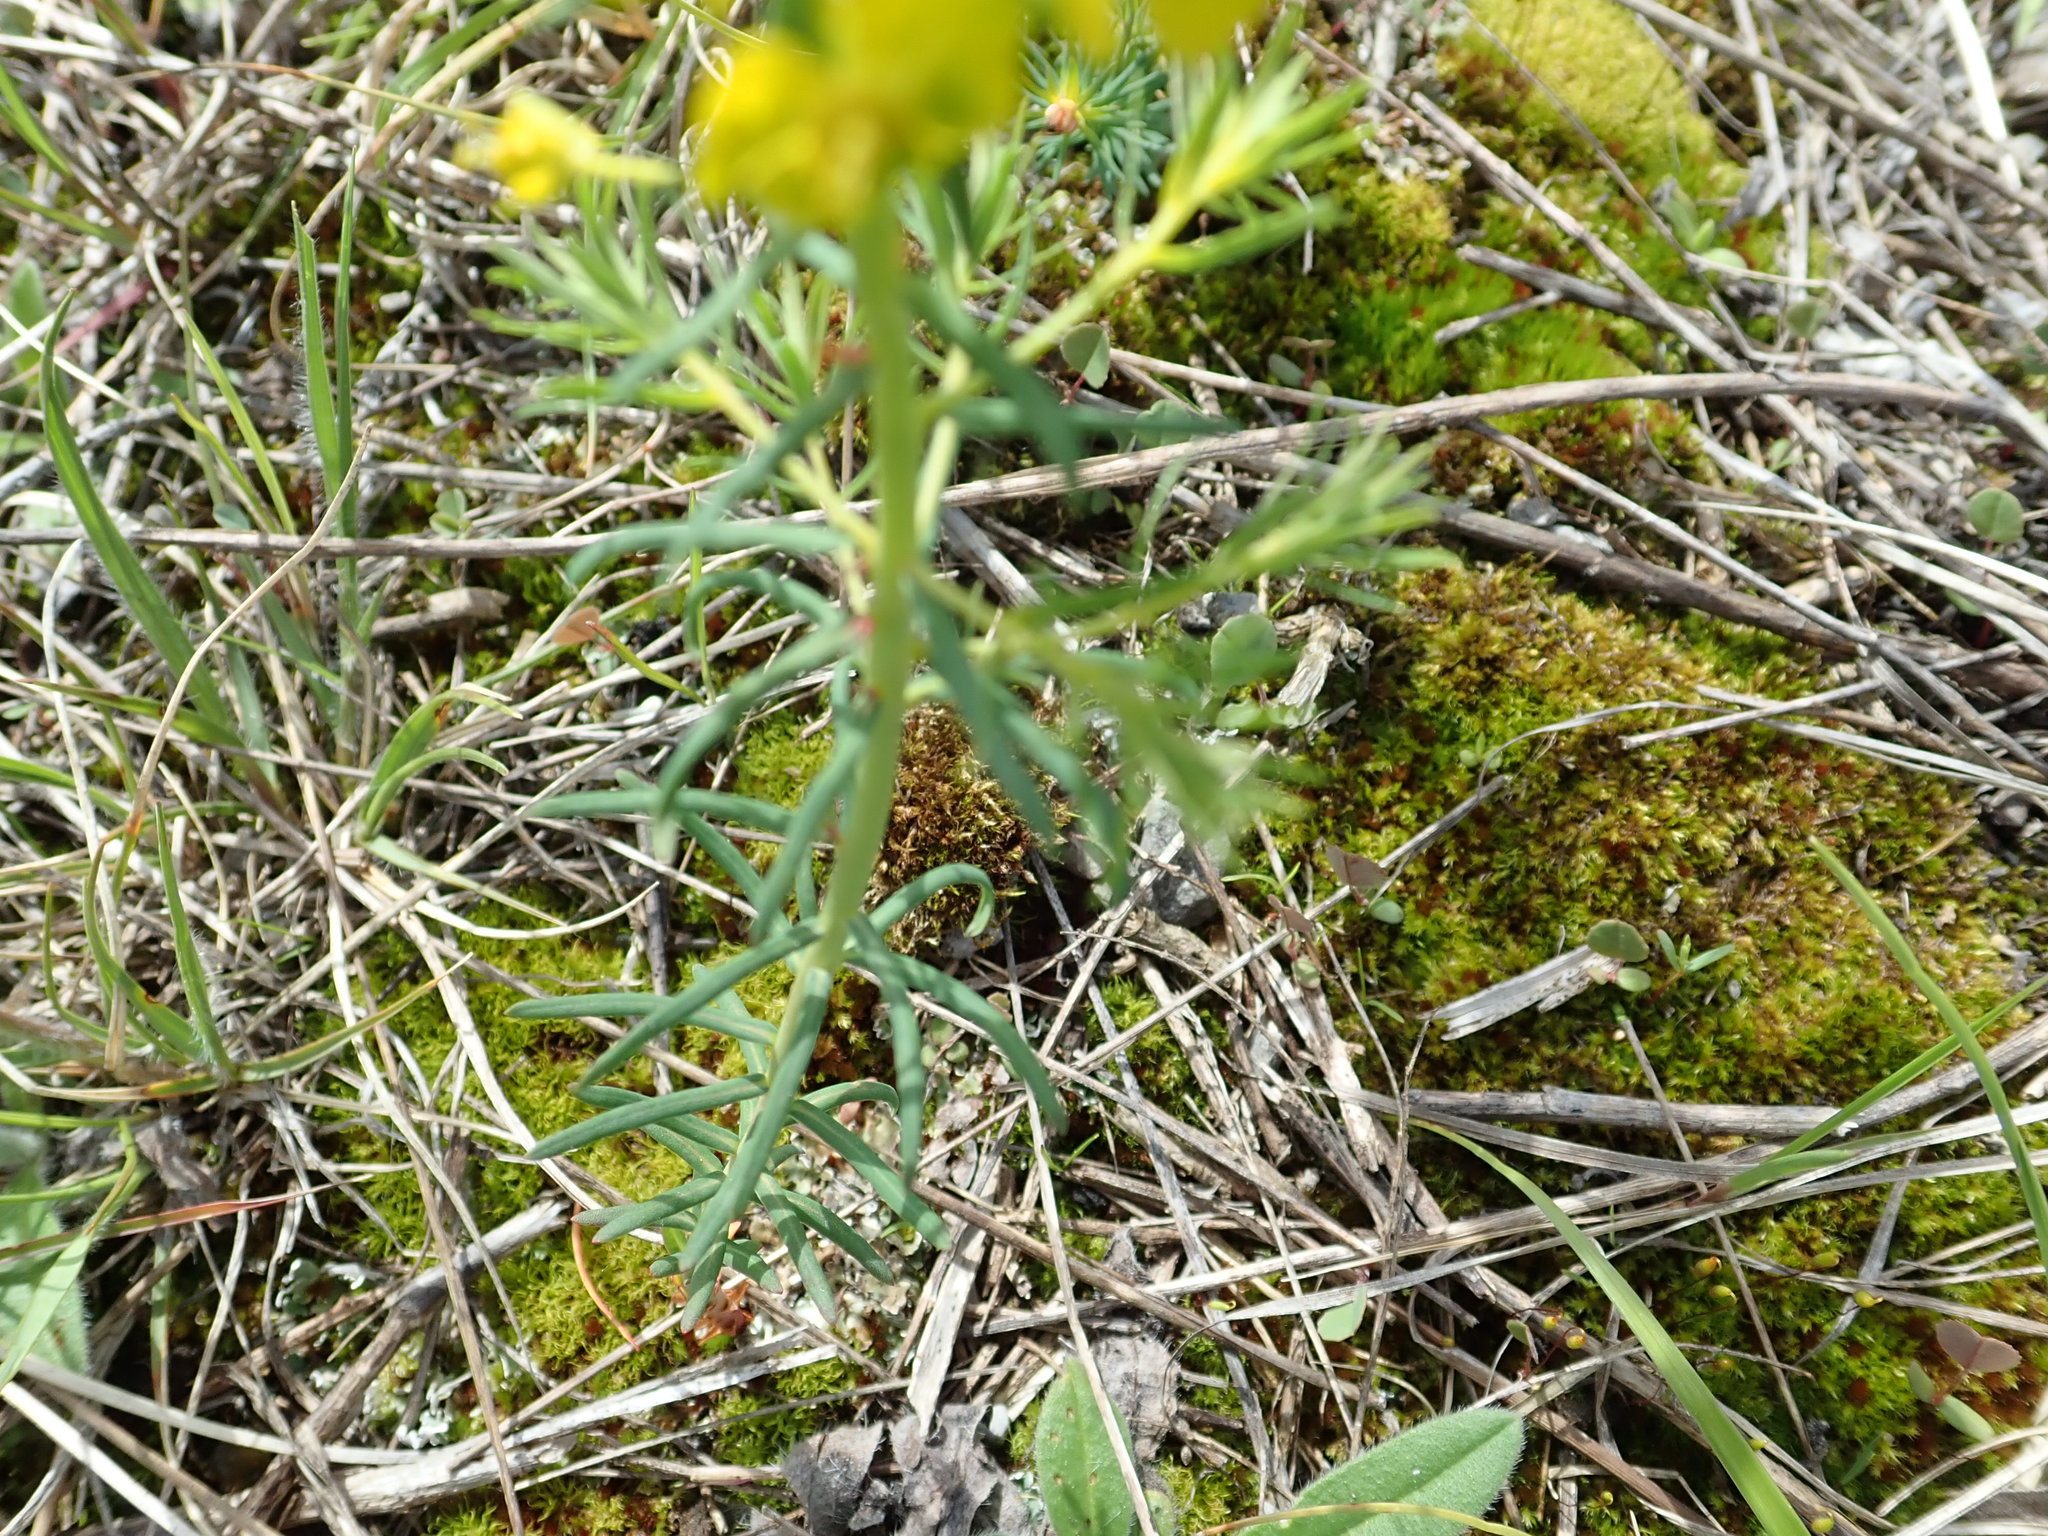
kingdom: Plantae
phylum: Tracheophyta
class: Magnoliopsida
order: Malpighiales
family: Euphorbiaceae
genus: Euphorbia
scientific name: Euphorbia cyparissias
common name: Cypress spurge
